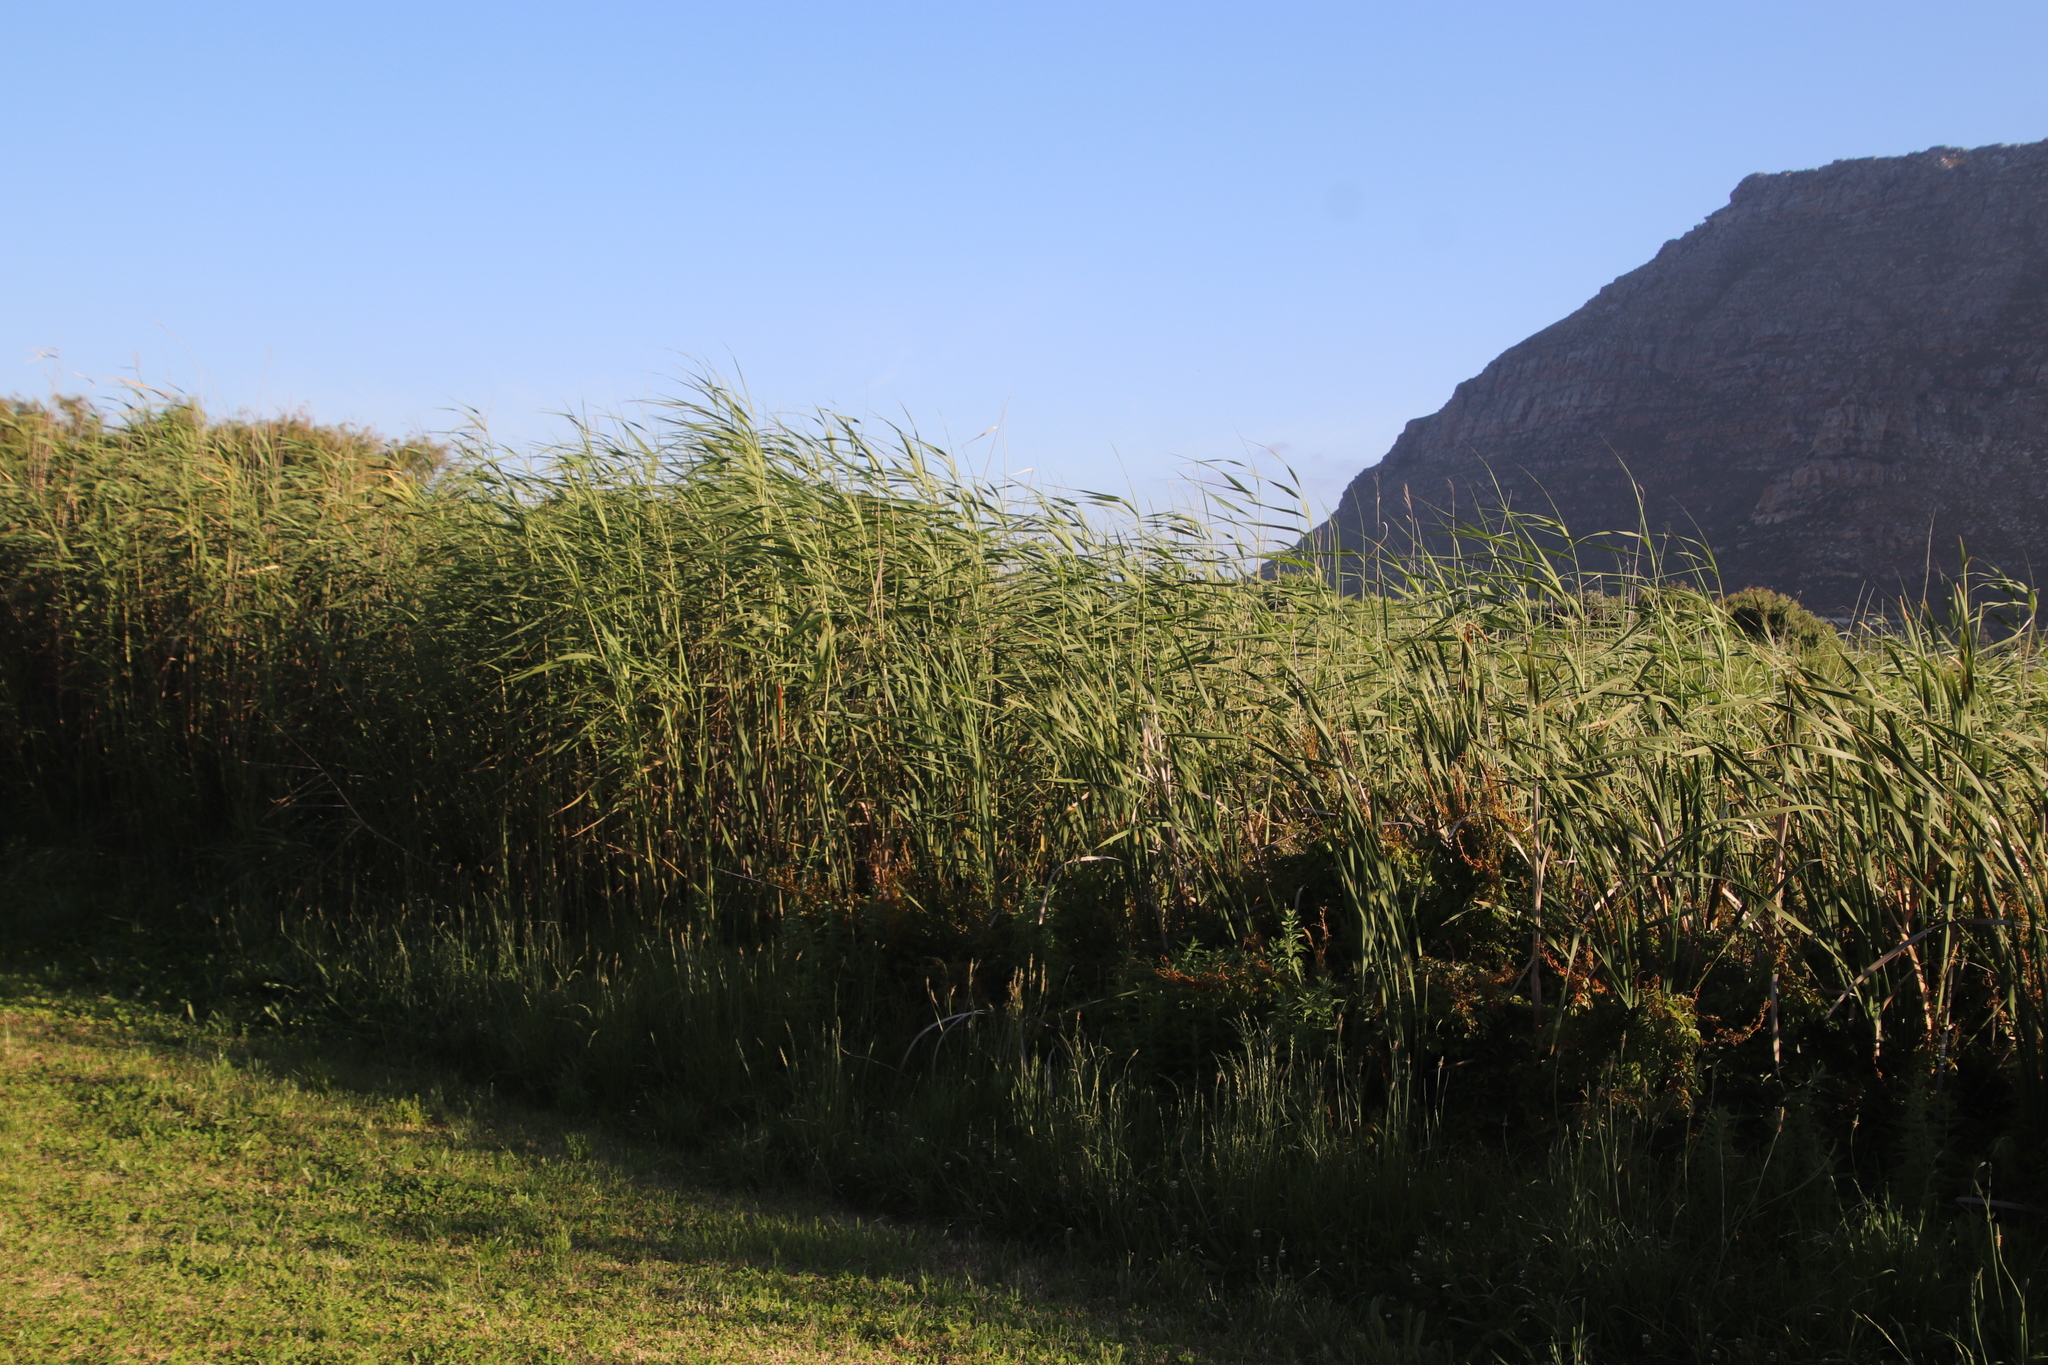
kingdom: Plantae
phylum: Tracheophyta
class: Liliopsida
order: Poales
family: Poaceae
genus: Phragmites
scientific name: Phragmites australis
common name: Common reed
